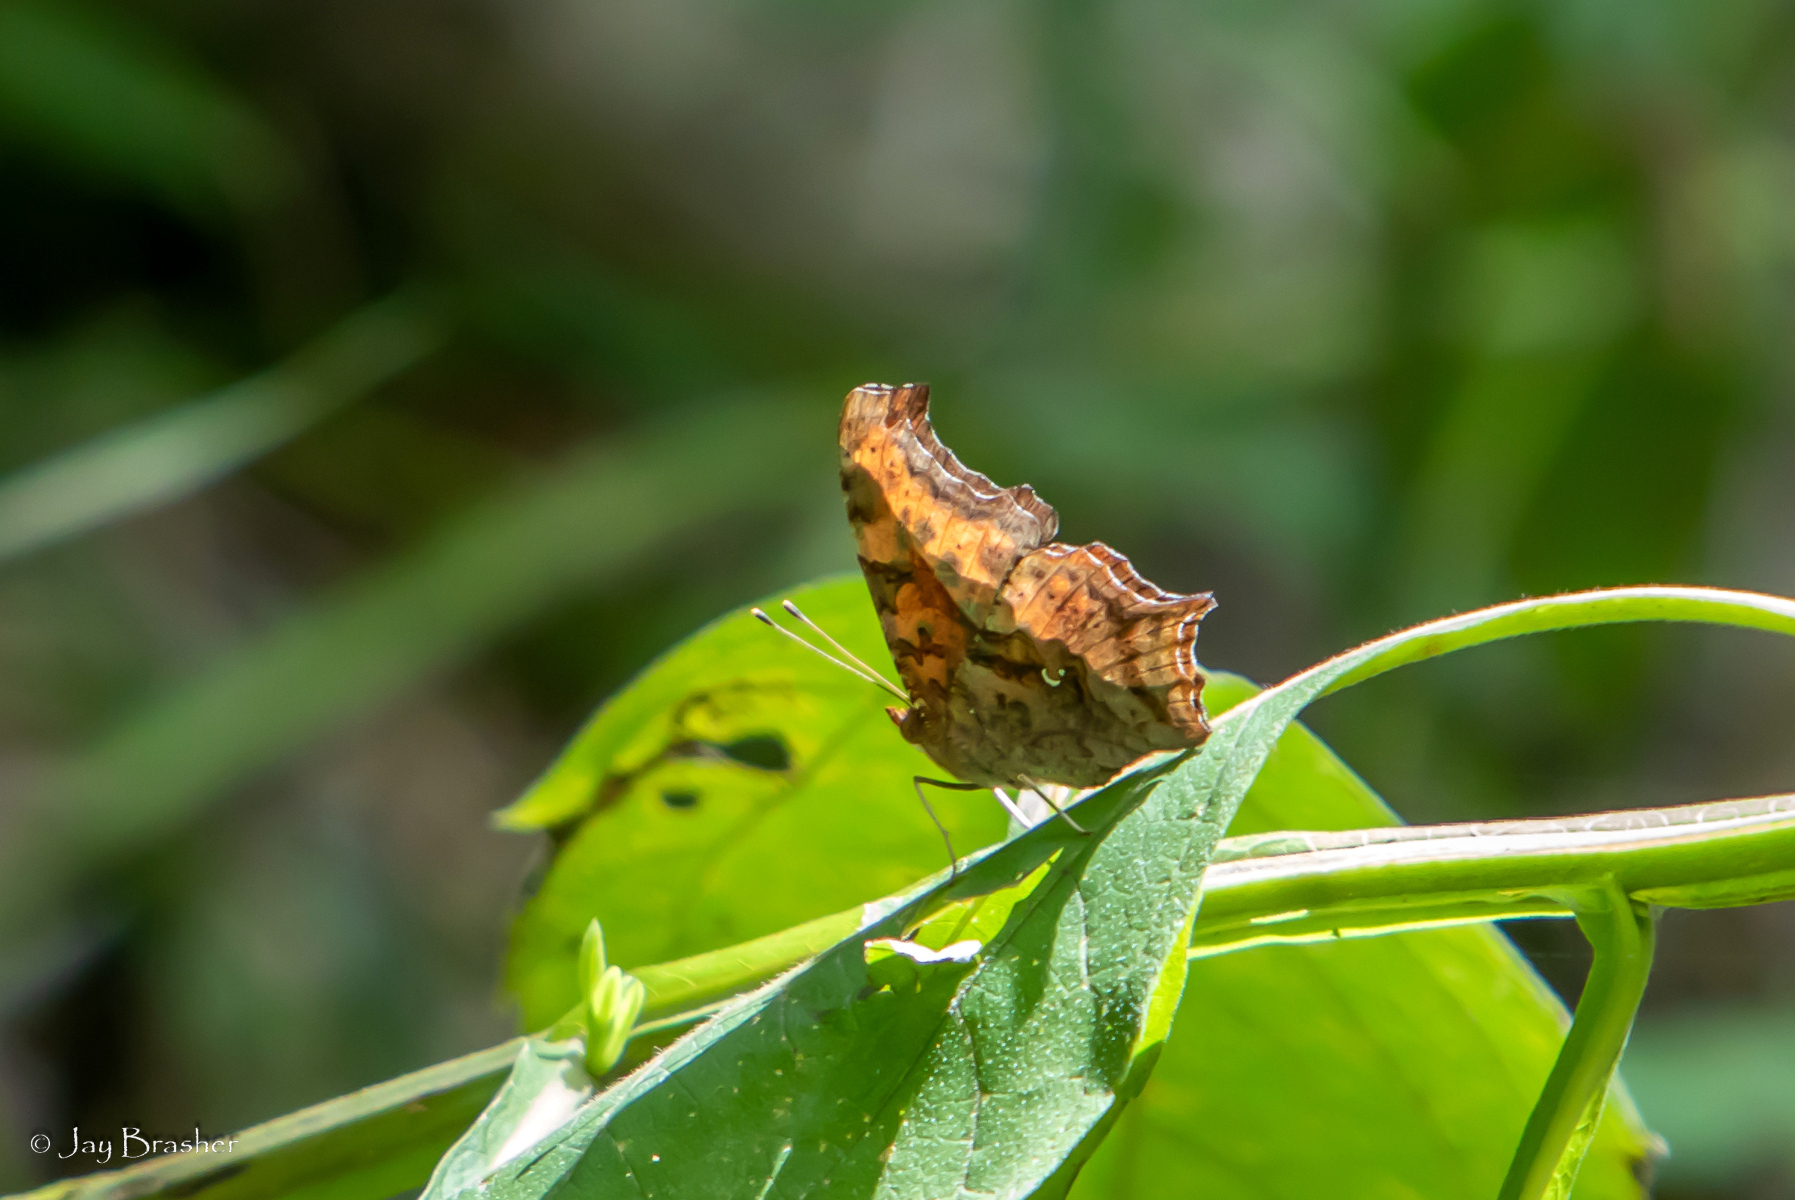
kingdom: Animalia
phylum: Arthropoda
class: Insecta
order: Lepidoptera
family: Nymphalidae
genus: Polygonia
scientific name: Polygonia interrogationis
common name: Question mark
